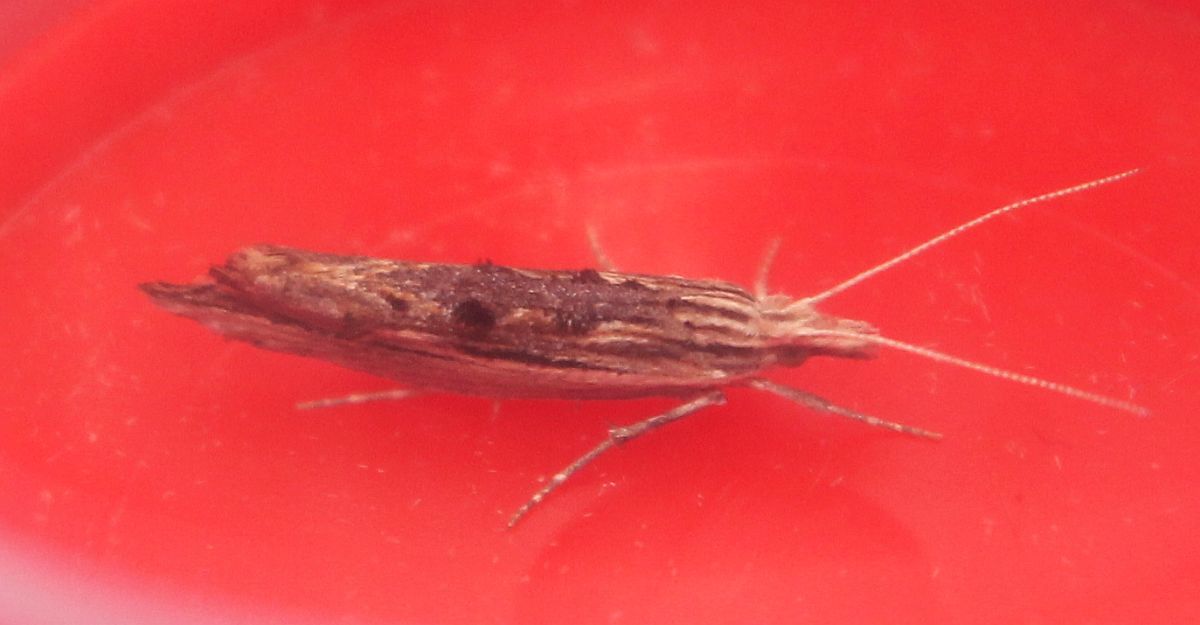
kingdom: Animalia
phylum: Arthropoda
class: Insecta
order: Lepidoptera
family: Ypsolophidae
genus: Ypsolopha
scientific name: Ypsolopha scabrella
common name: Wainscot smudge
